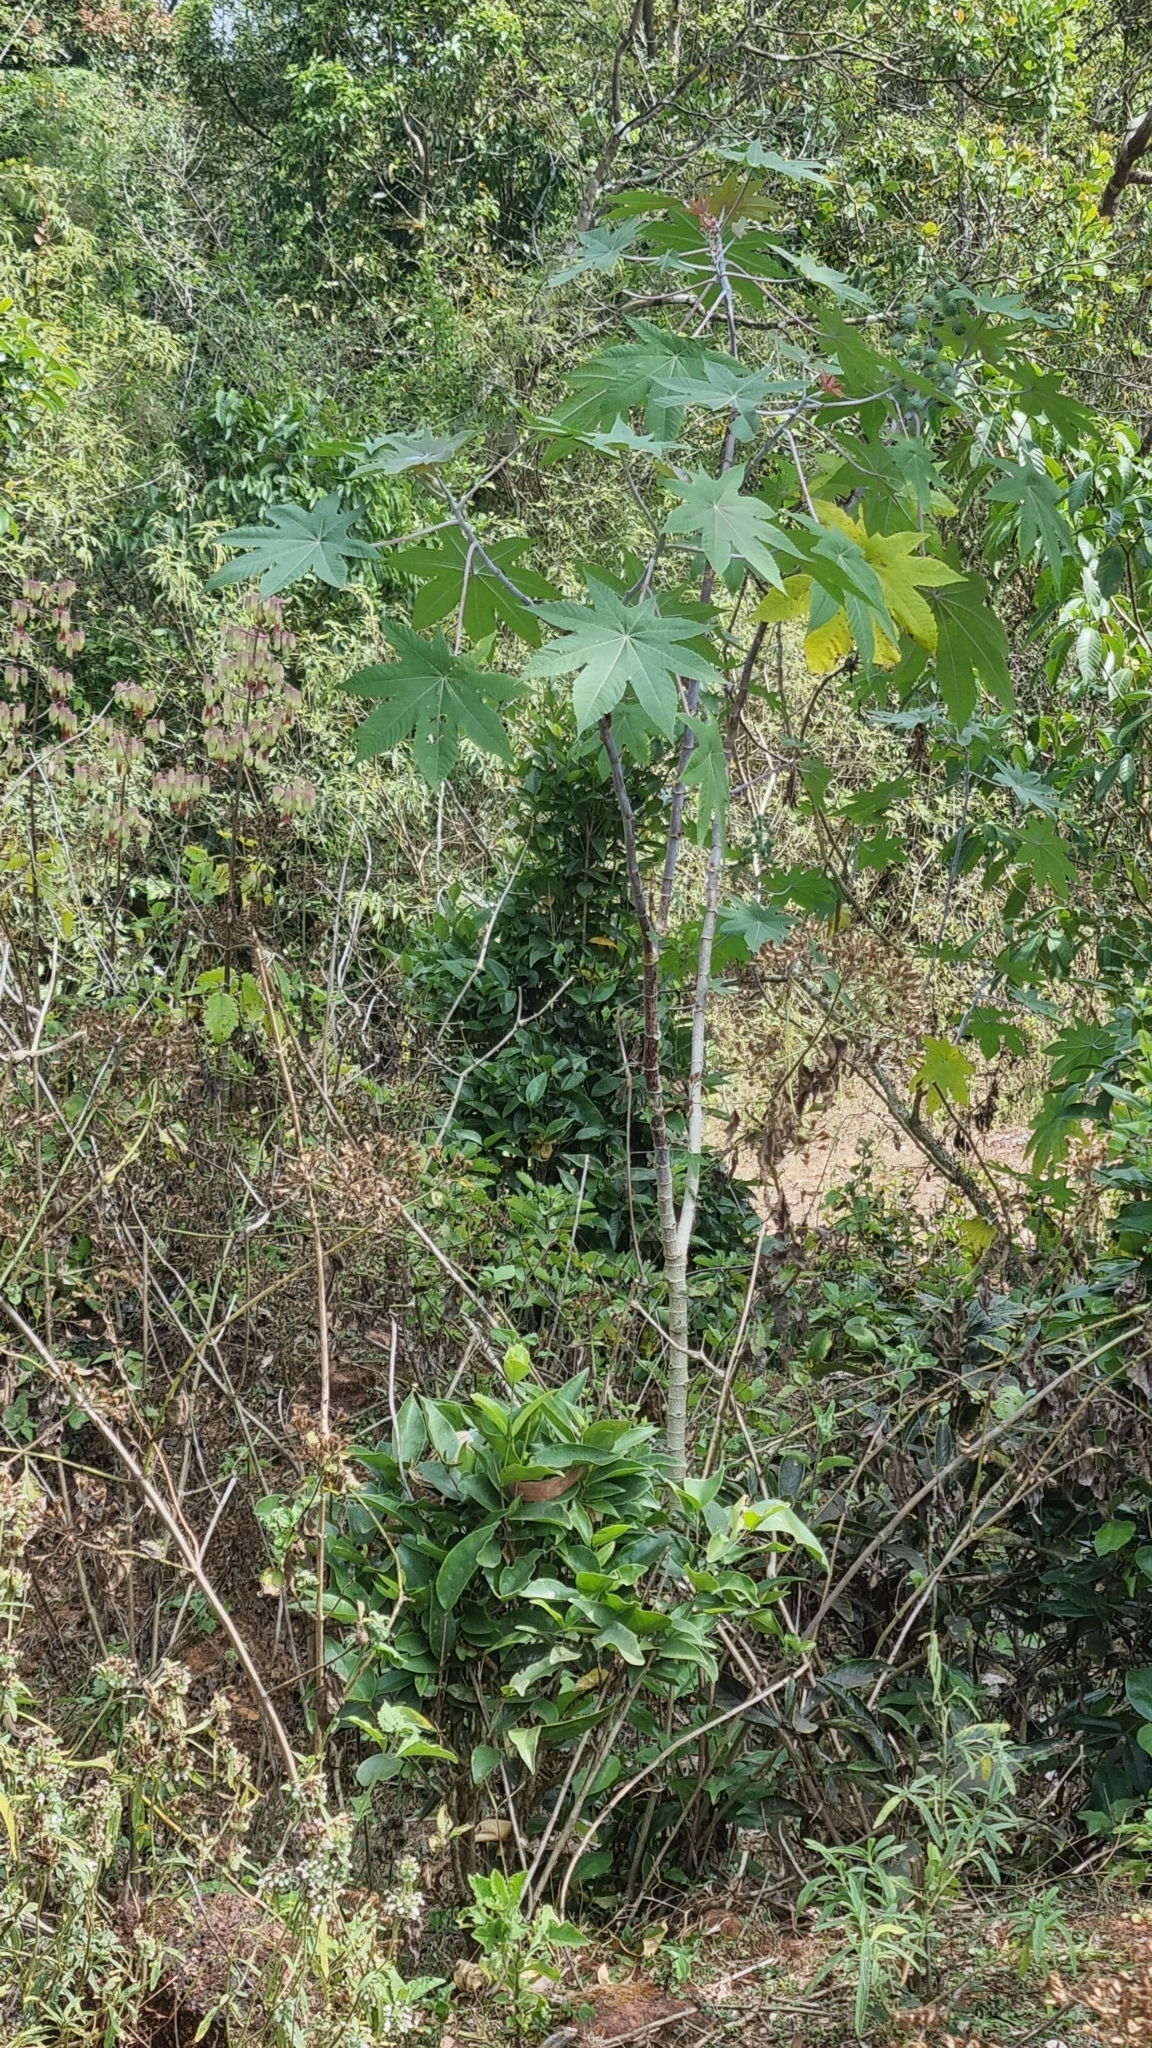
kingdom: Plantae
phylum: Tracheophyta
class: Magnoliopsida
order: Malpighiales
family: Euphorbiaceae
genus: Ricinus
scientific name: Ricinus communis
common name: Castor-oil-plant
